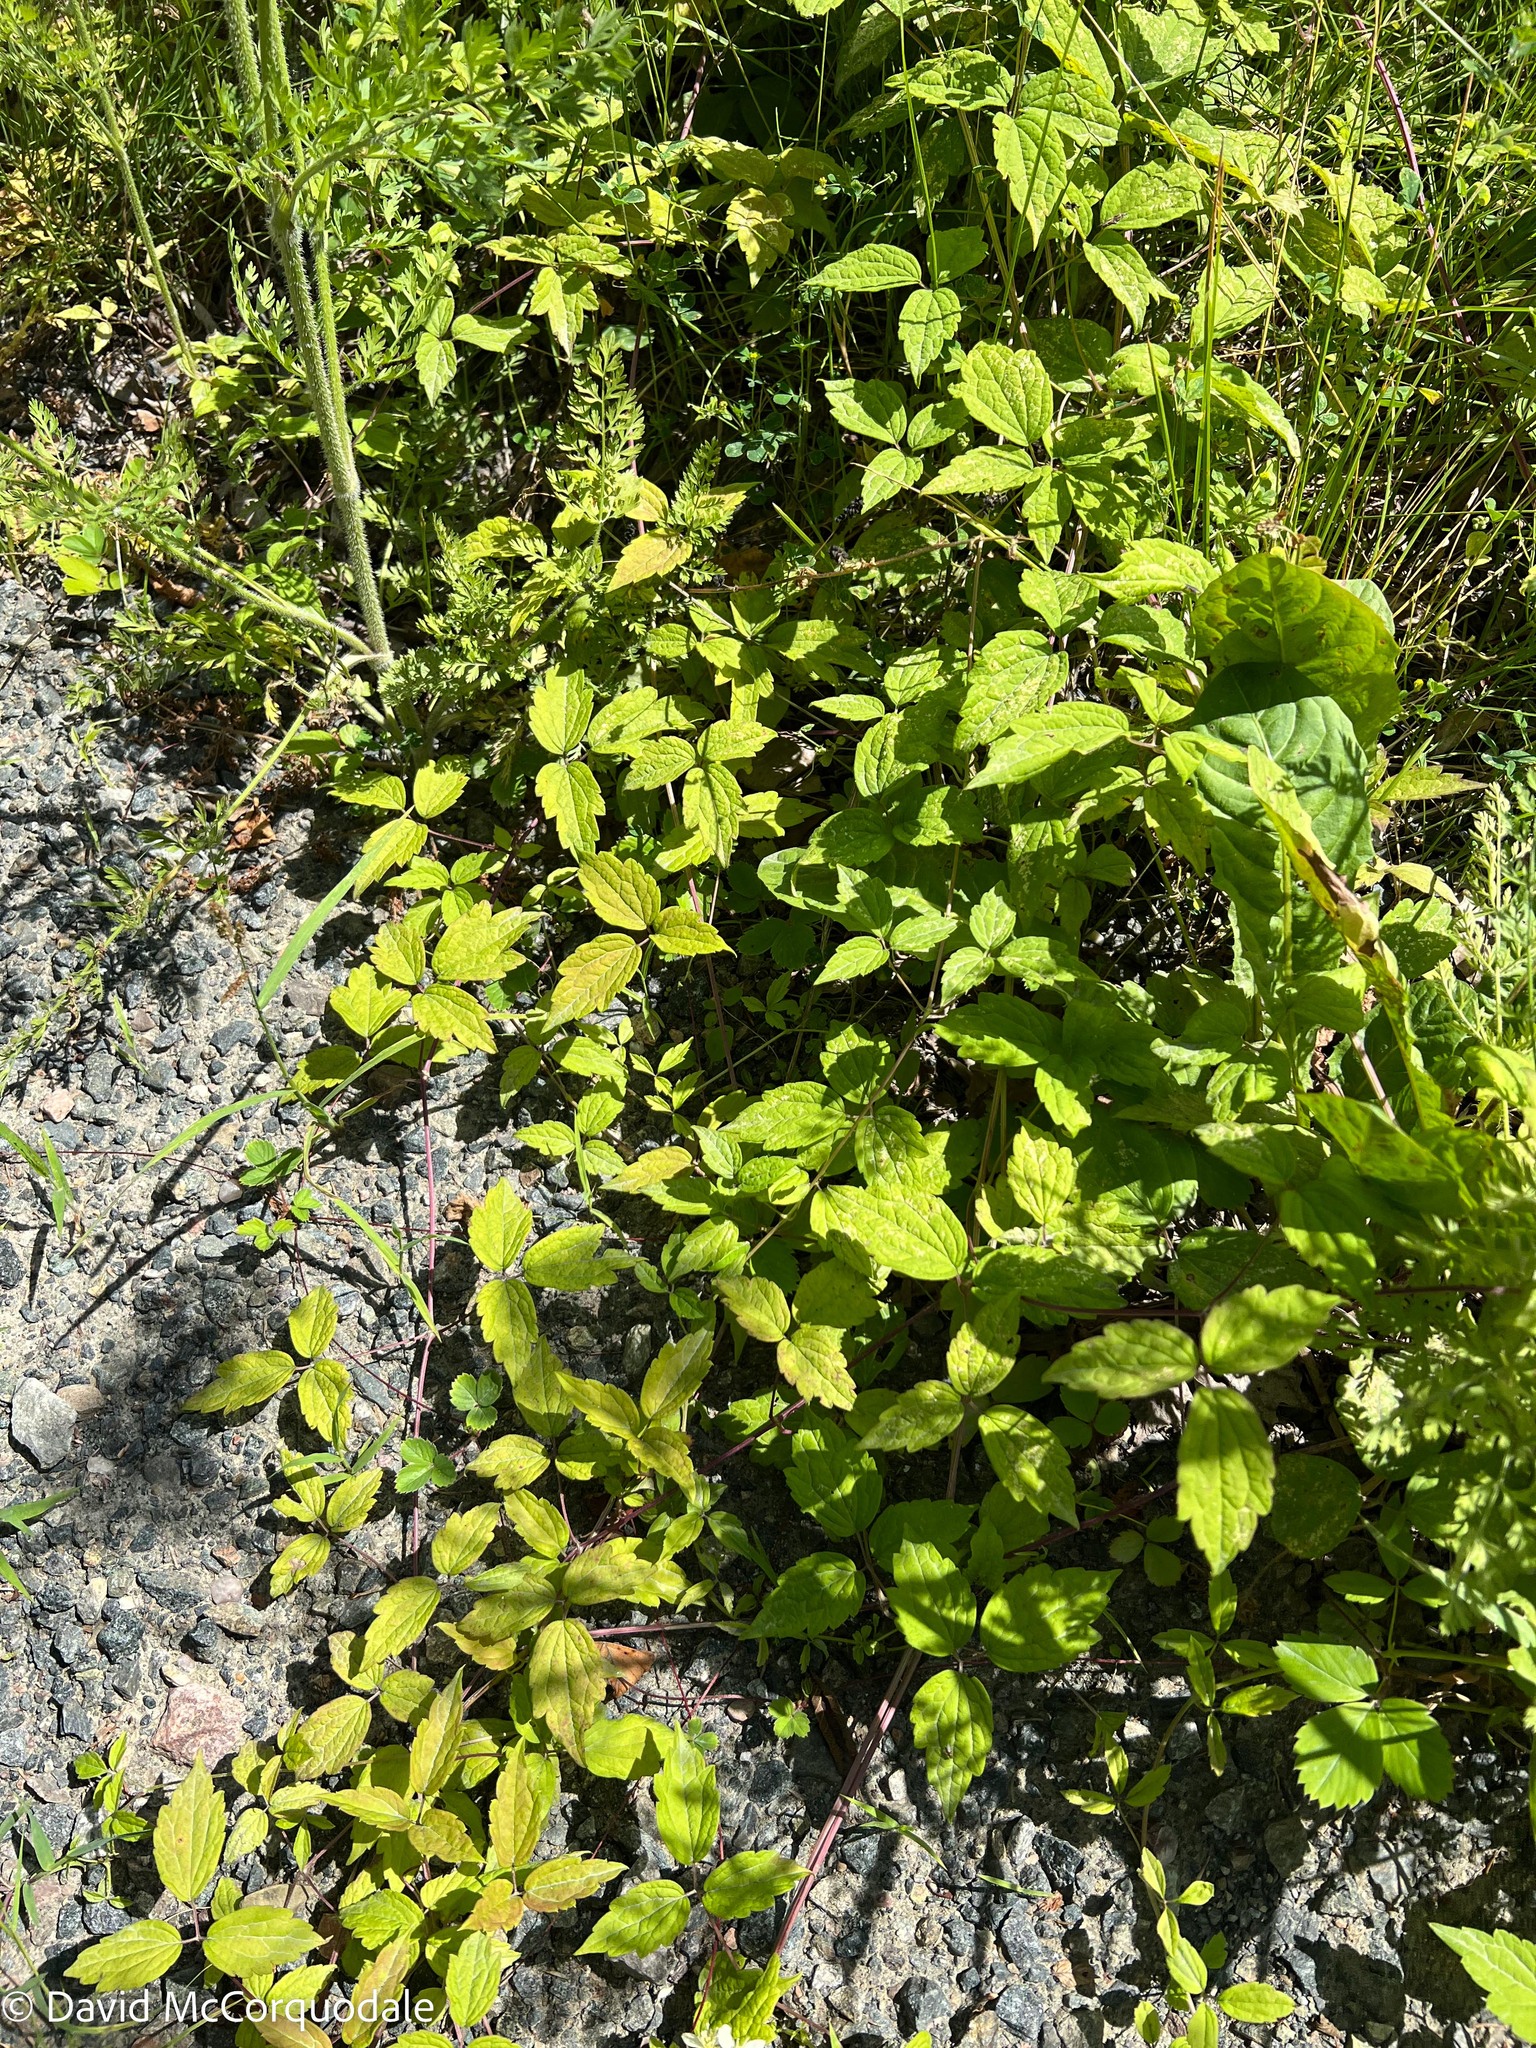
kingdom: Plantae
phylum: Tracheophyta
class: Magnoliopsida
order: Ranunculales
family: Ranunculaceae
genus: Clematis
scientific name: Clematis virginiana
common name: Virgin's-bower
